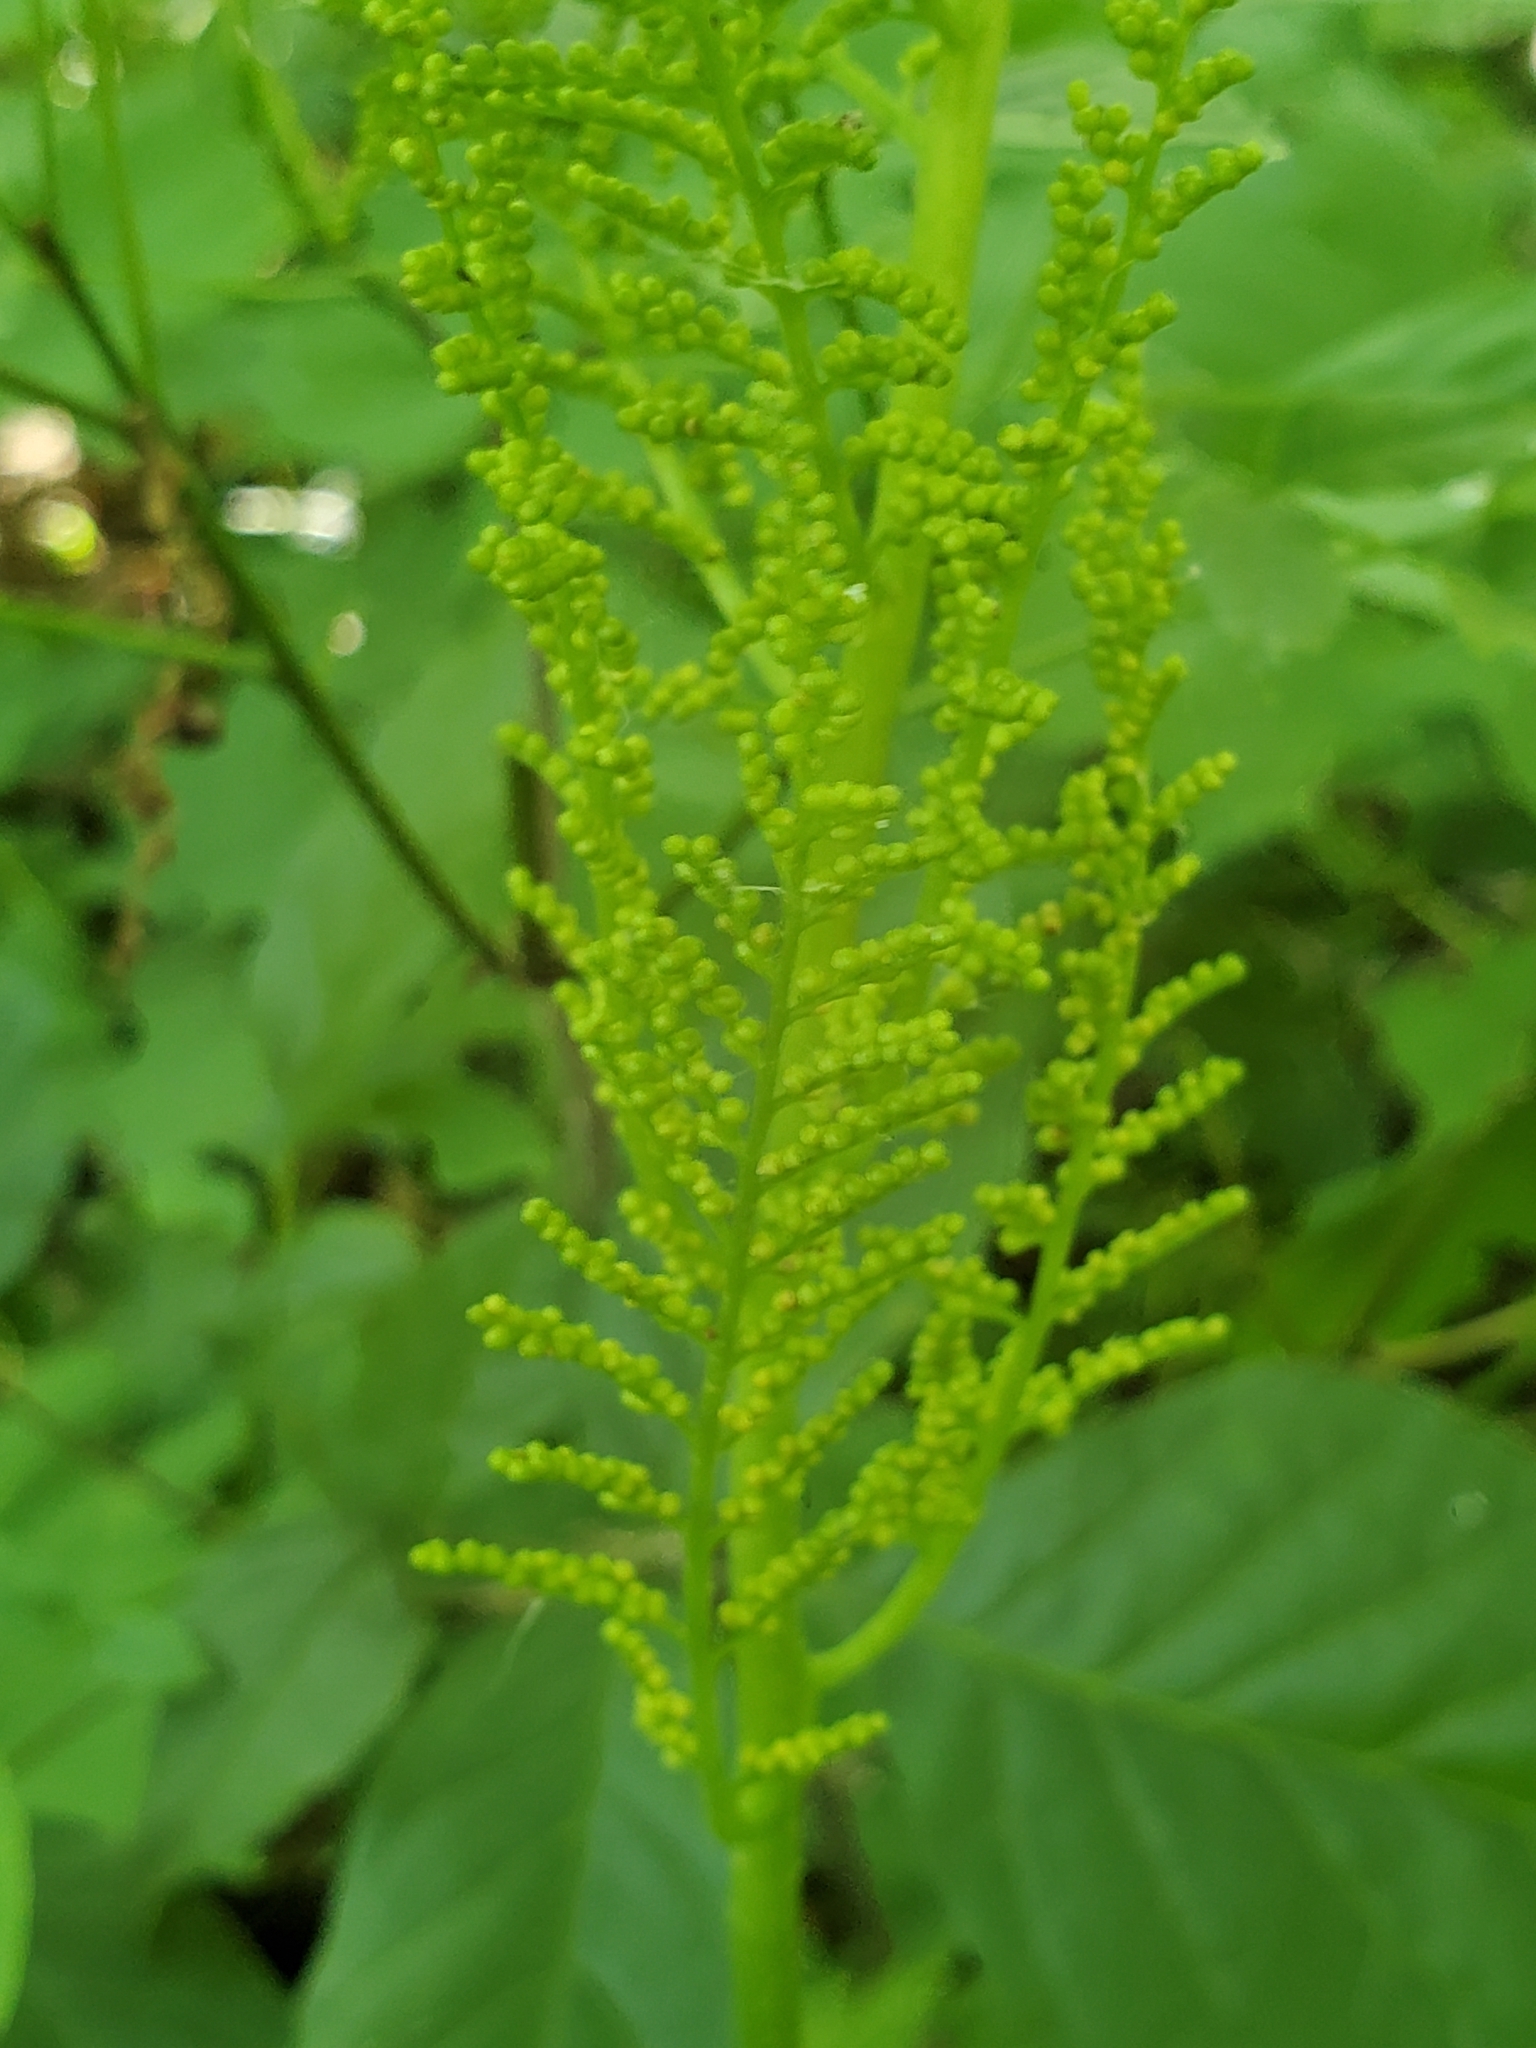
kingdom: Plantae
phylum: Tracheophyta
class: Polypodiopsida
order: Ophioglossales
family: Ophioglossaceae
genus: Botrypus
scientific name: Botrypus virginianus
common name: Common grapefern
